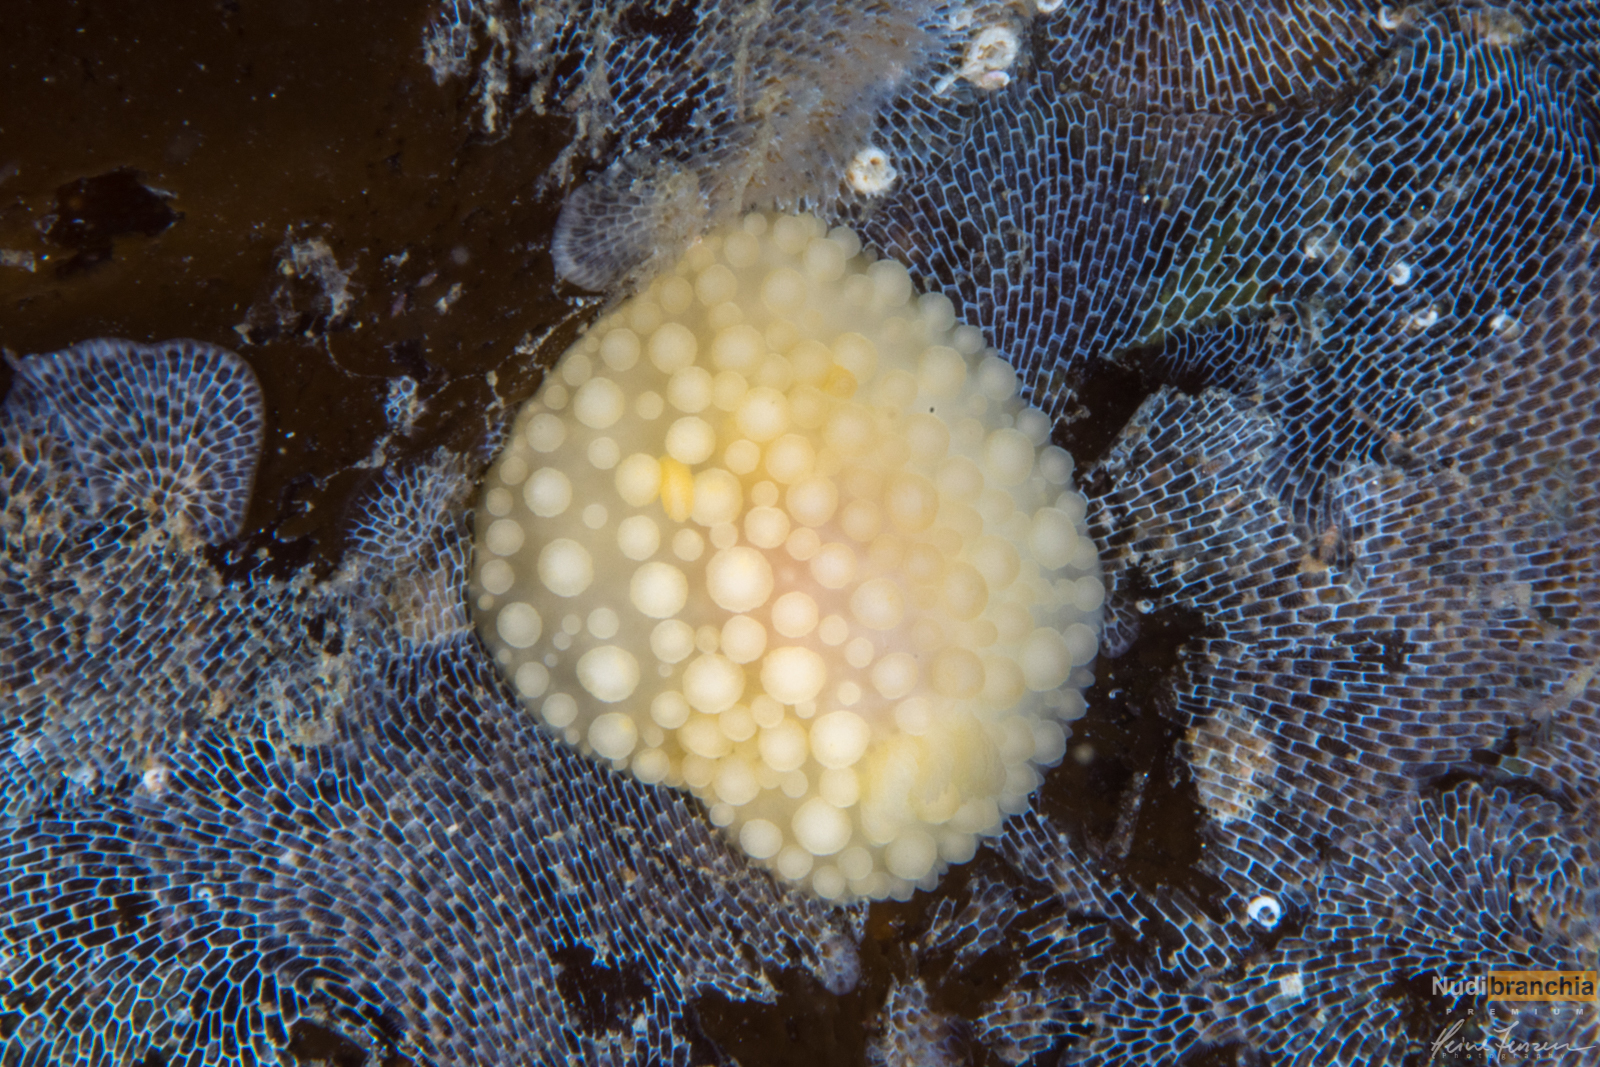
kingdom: Animalia
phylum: Mollusca
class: Gastropoda
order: Nudibranchia
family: Onchidorididae
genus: Adalaria
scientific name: Adalaria loveni
